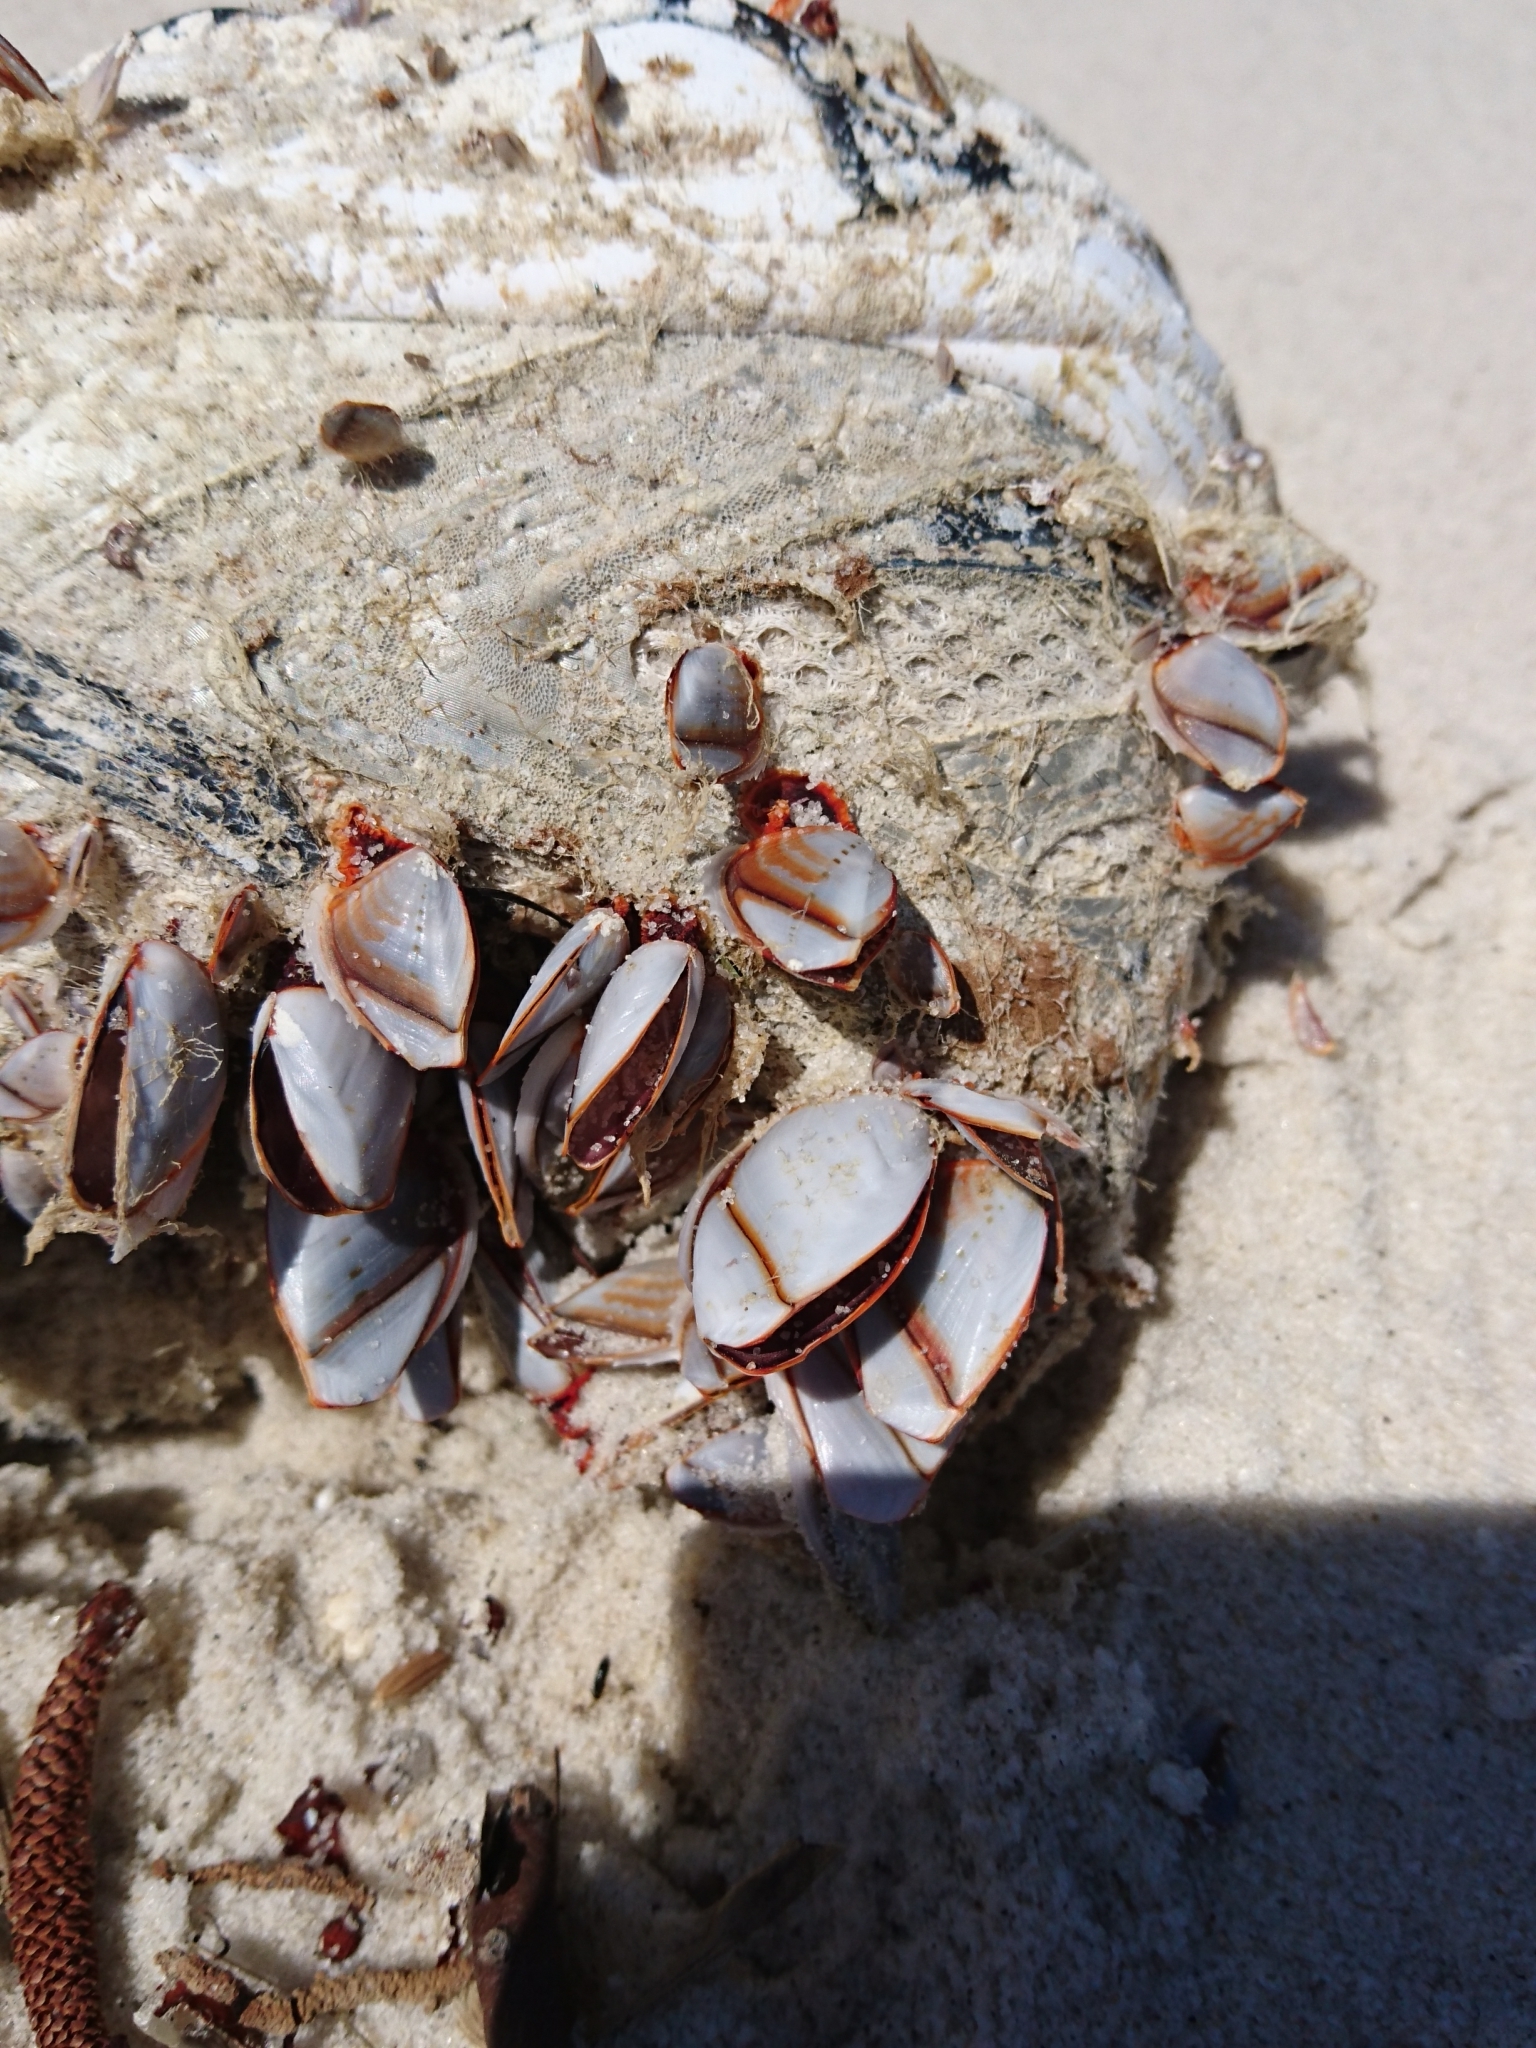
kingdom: Animalia
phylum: Arthropoda
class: Maxillopoda
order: Pedunculata
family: Lepadidae
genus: Lepas
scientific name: Lepas indica
